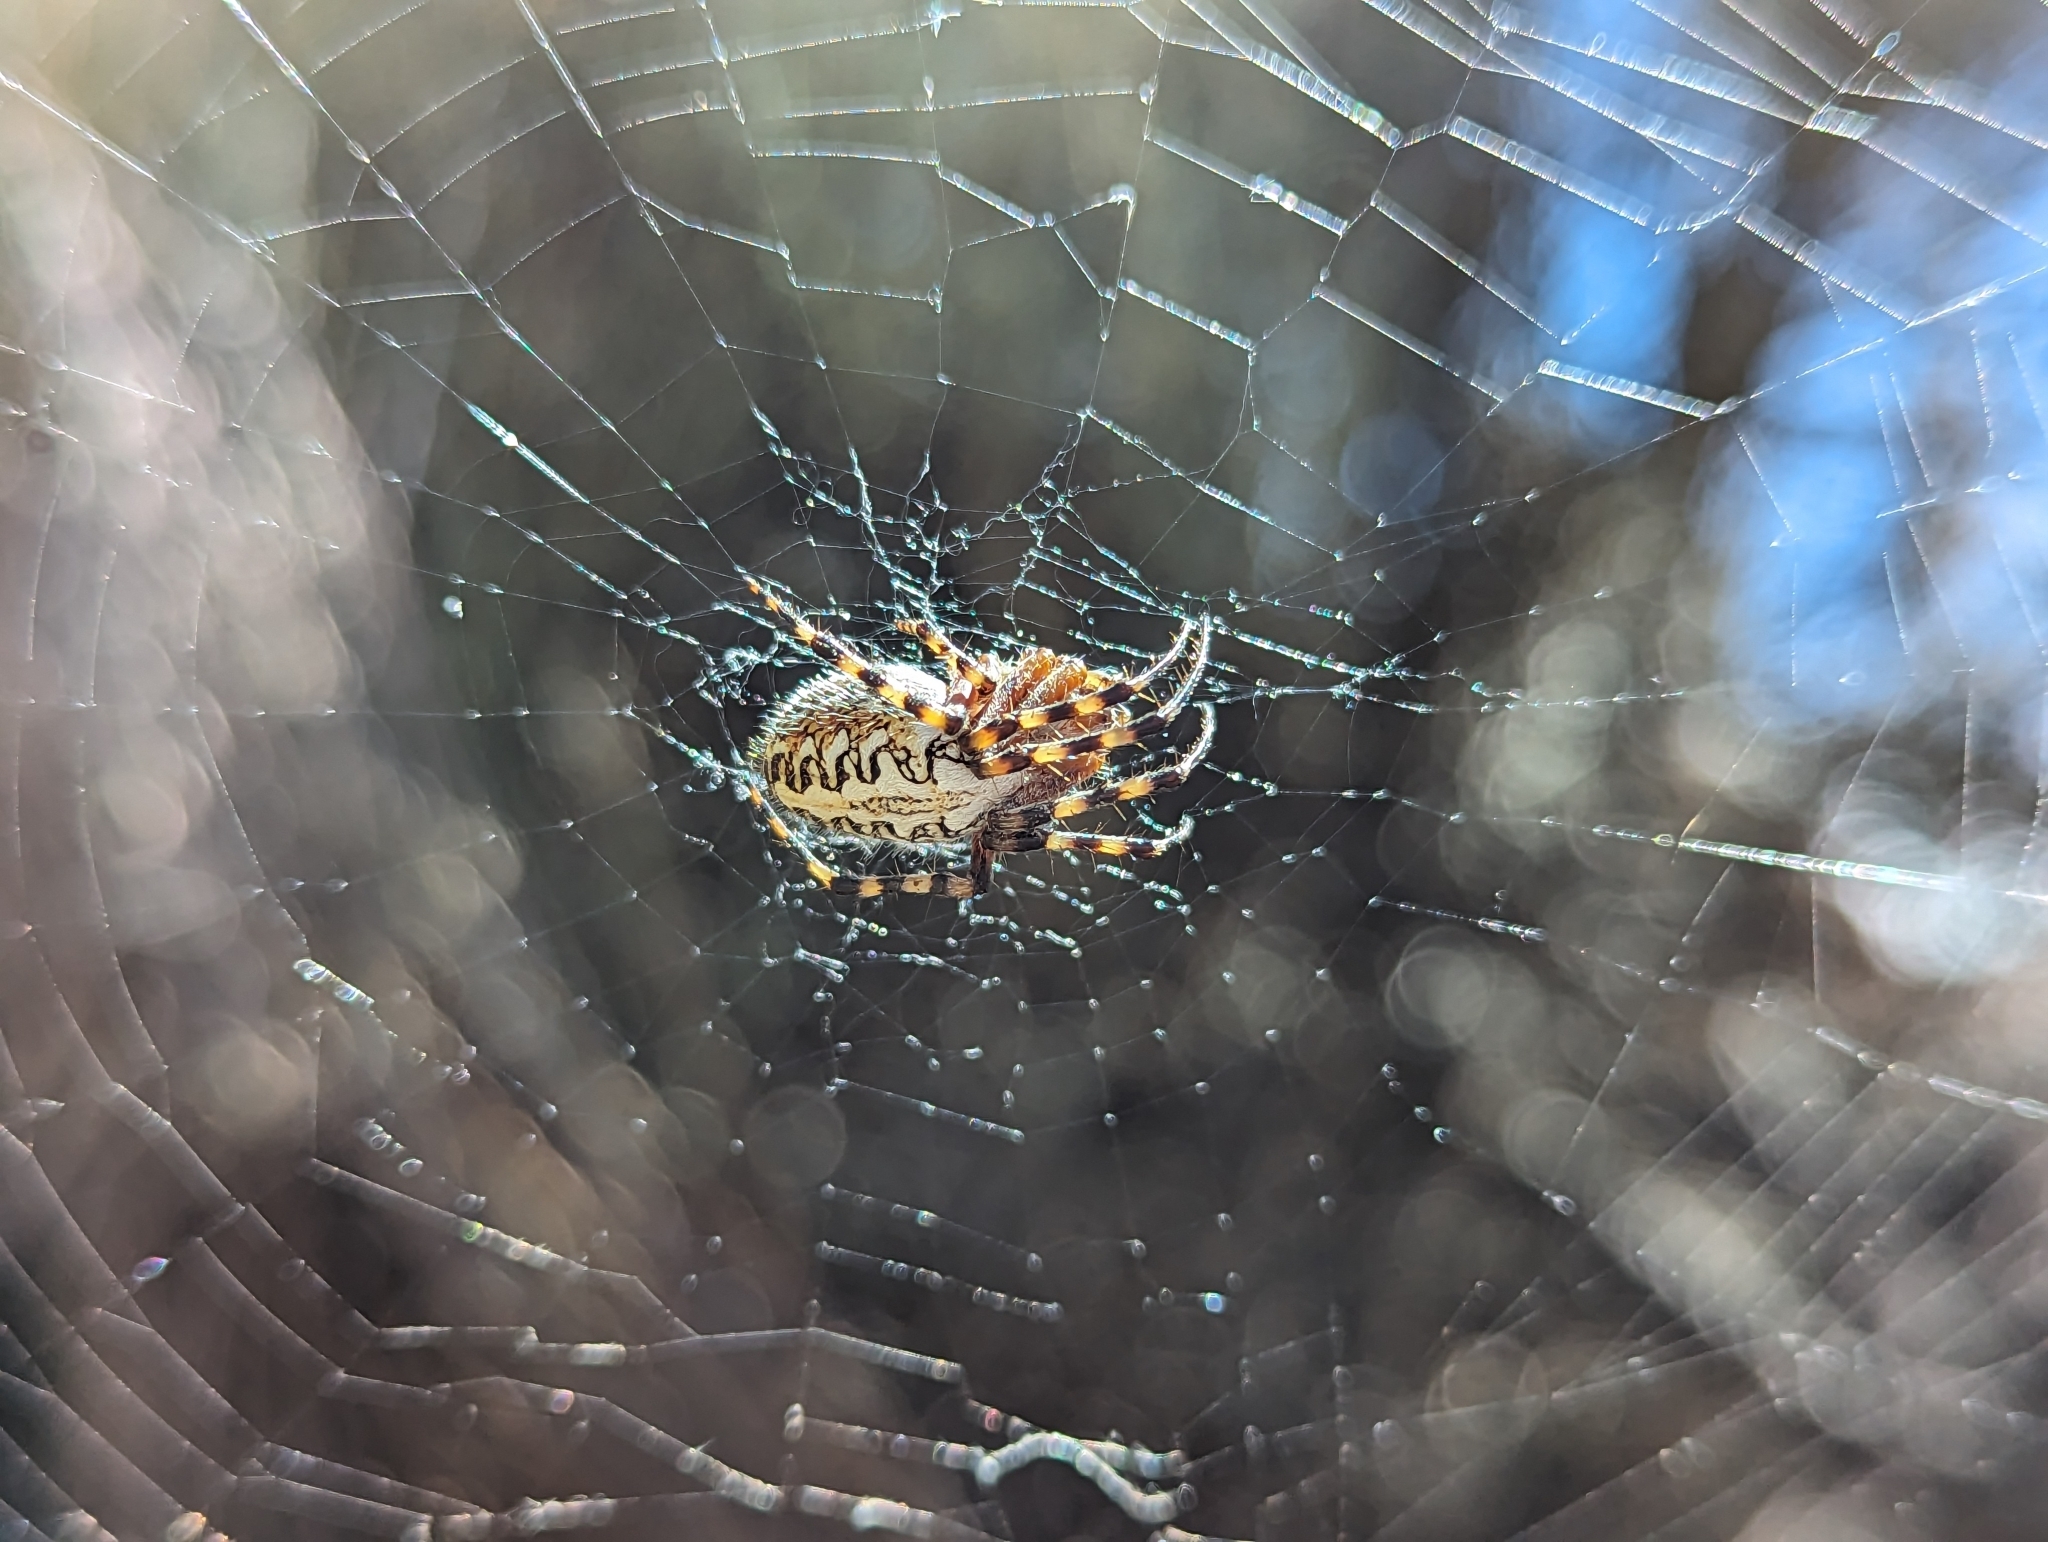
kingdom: Animalia
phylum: Arthropoda
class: Arachnida
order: Araneae
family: Araneidae
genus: Araneus
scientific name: Araneus annulipes
